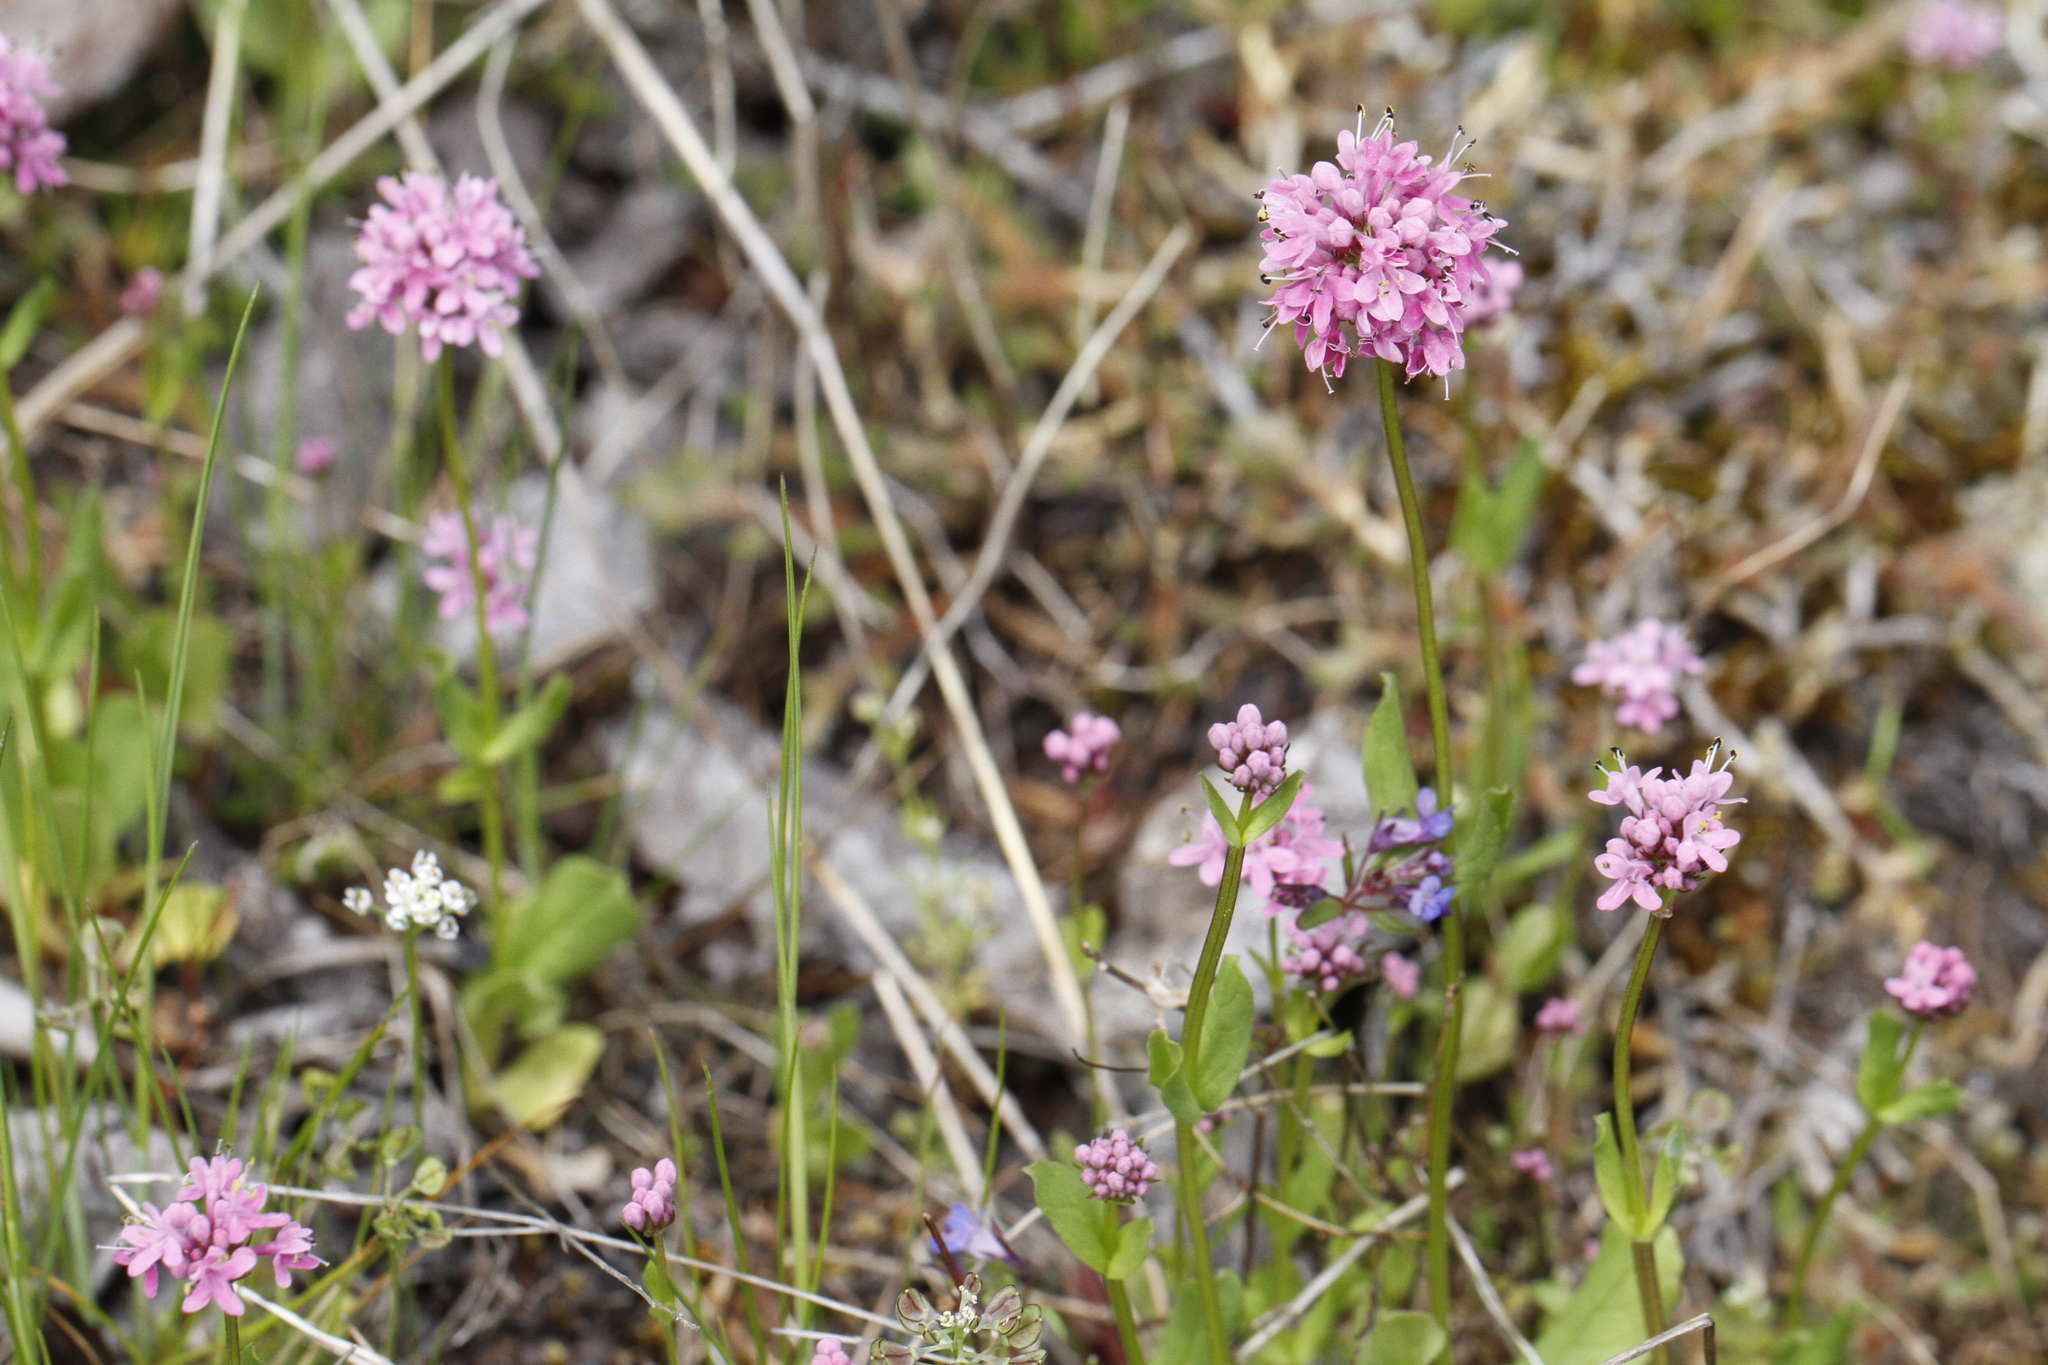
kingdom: Plantae
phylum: Tracheophyta
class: Magnoliopsida
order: Dipsacales
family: Caprifoliaceae
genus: Plectritis
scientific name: Plectritis congesta
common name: Pink plectritis
